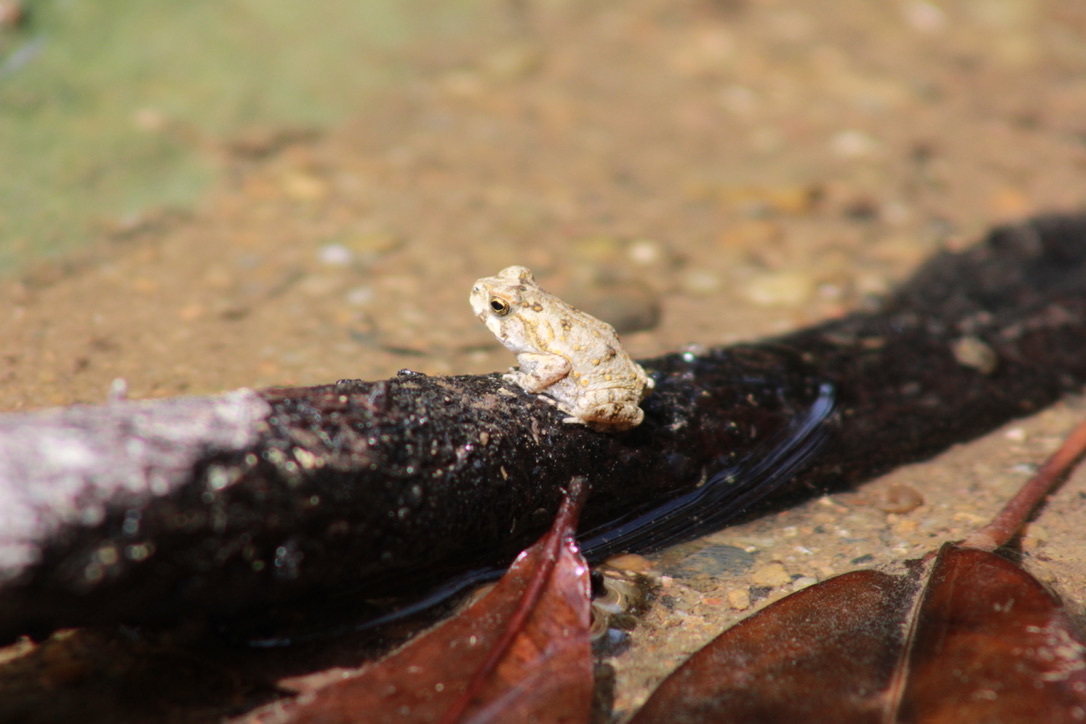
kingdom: Animalia
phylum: Chordata
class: Amphibia
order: Anura
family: Bufonidae
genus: Rhinella
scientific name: Rhinella marina
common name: Cane toad
